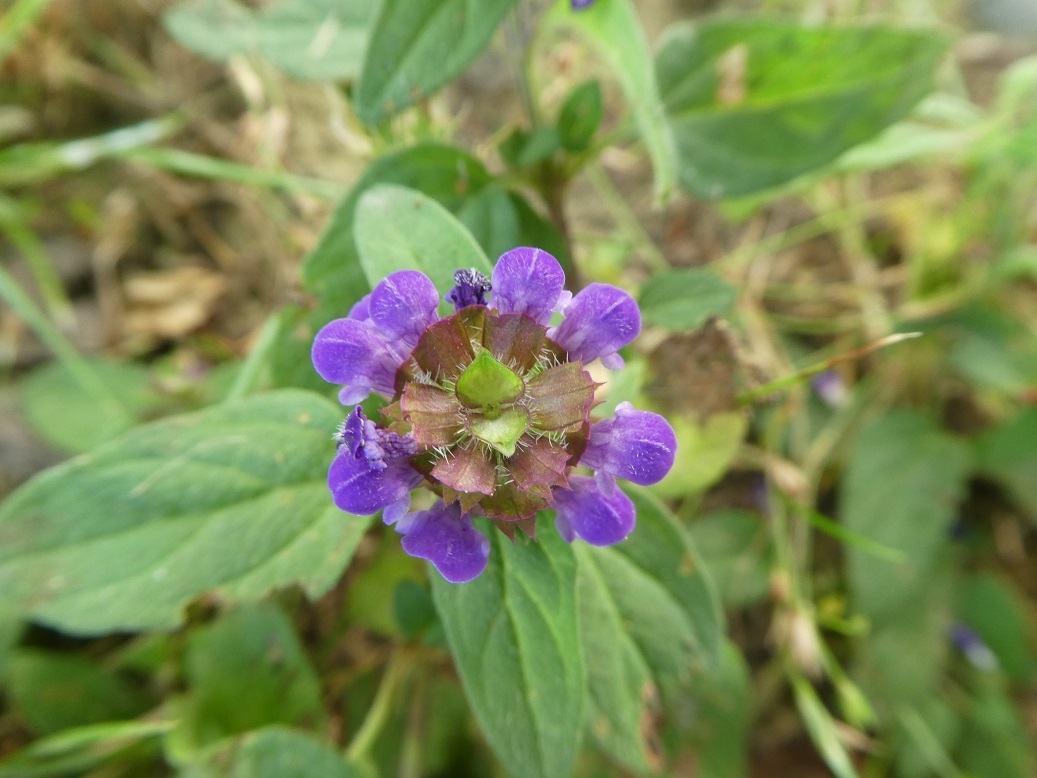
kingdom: Plantae
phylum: Tracheophyta
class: Magnoliopsida
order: Lamiales
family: Lamiaceae
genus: Prunella
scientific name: Prunella vulgaris
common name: Heal-all
